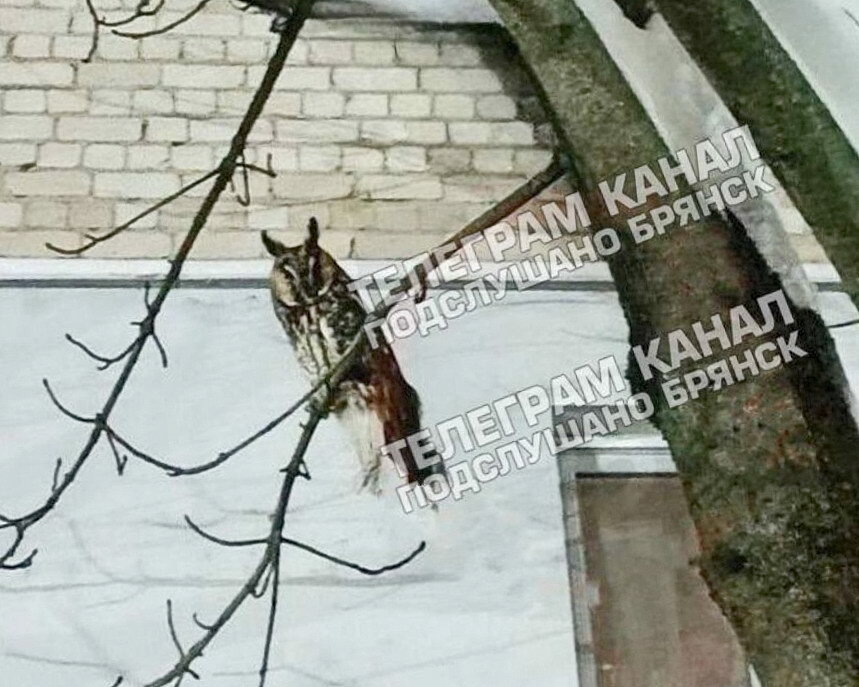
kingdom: Animalia
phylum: Chordata
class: Aves
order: Strigiformes
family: Strigidae
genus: Asio
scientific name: Asio otus
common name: Long-eared owl
